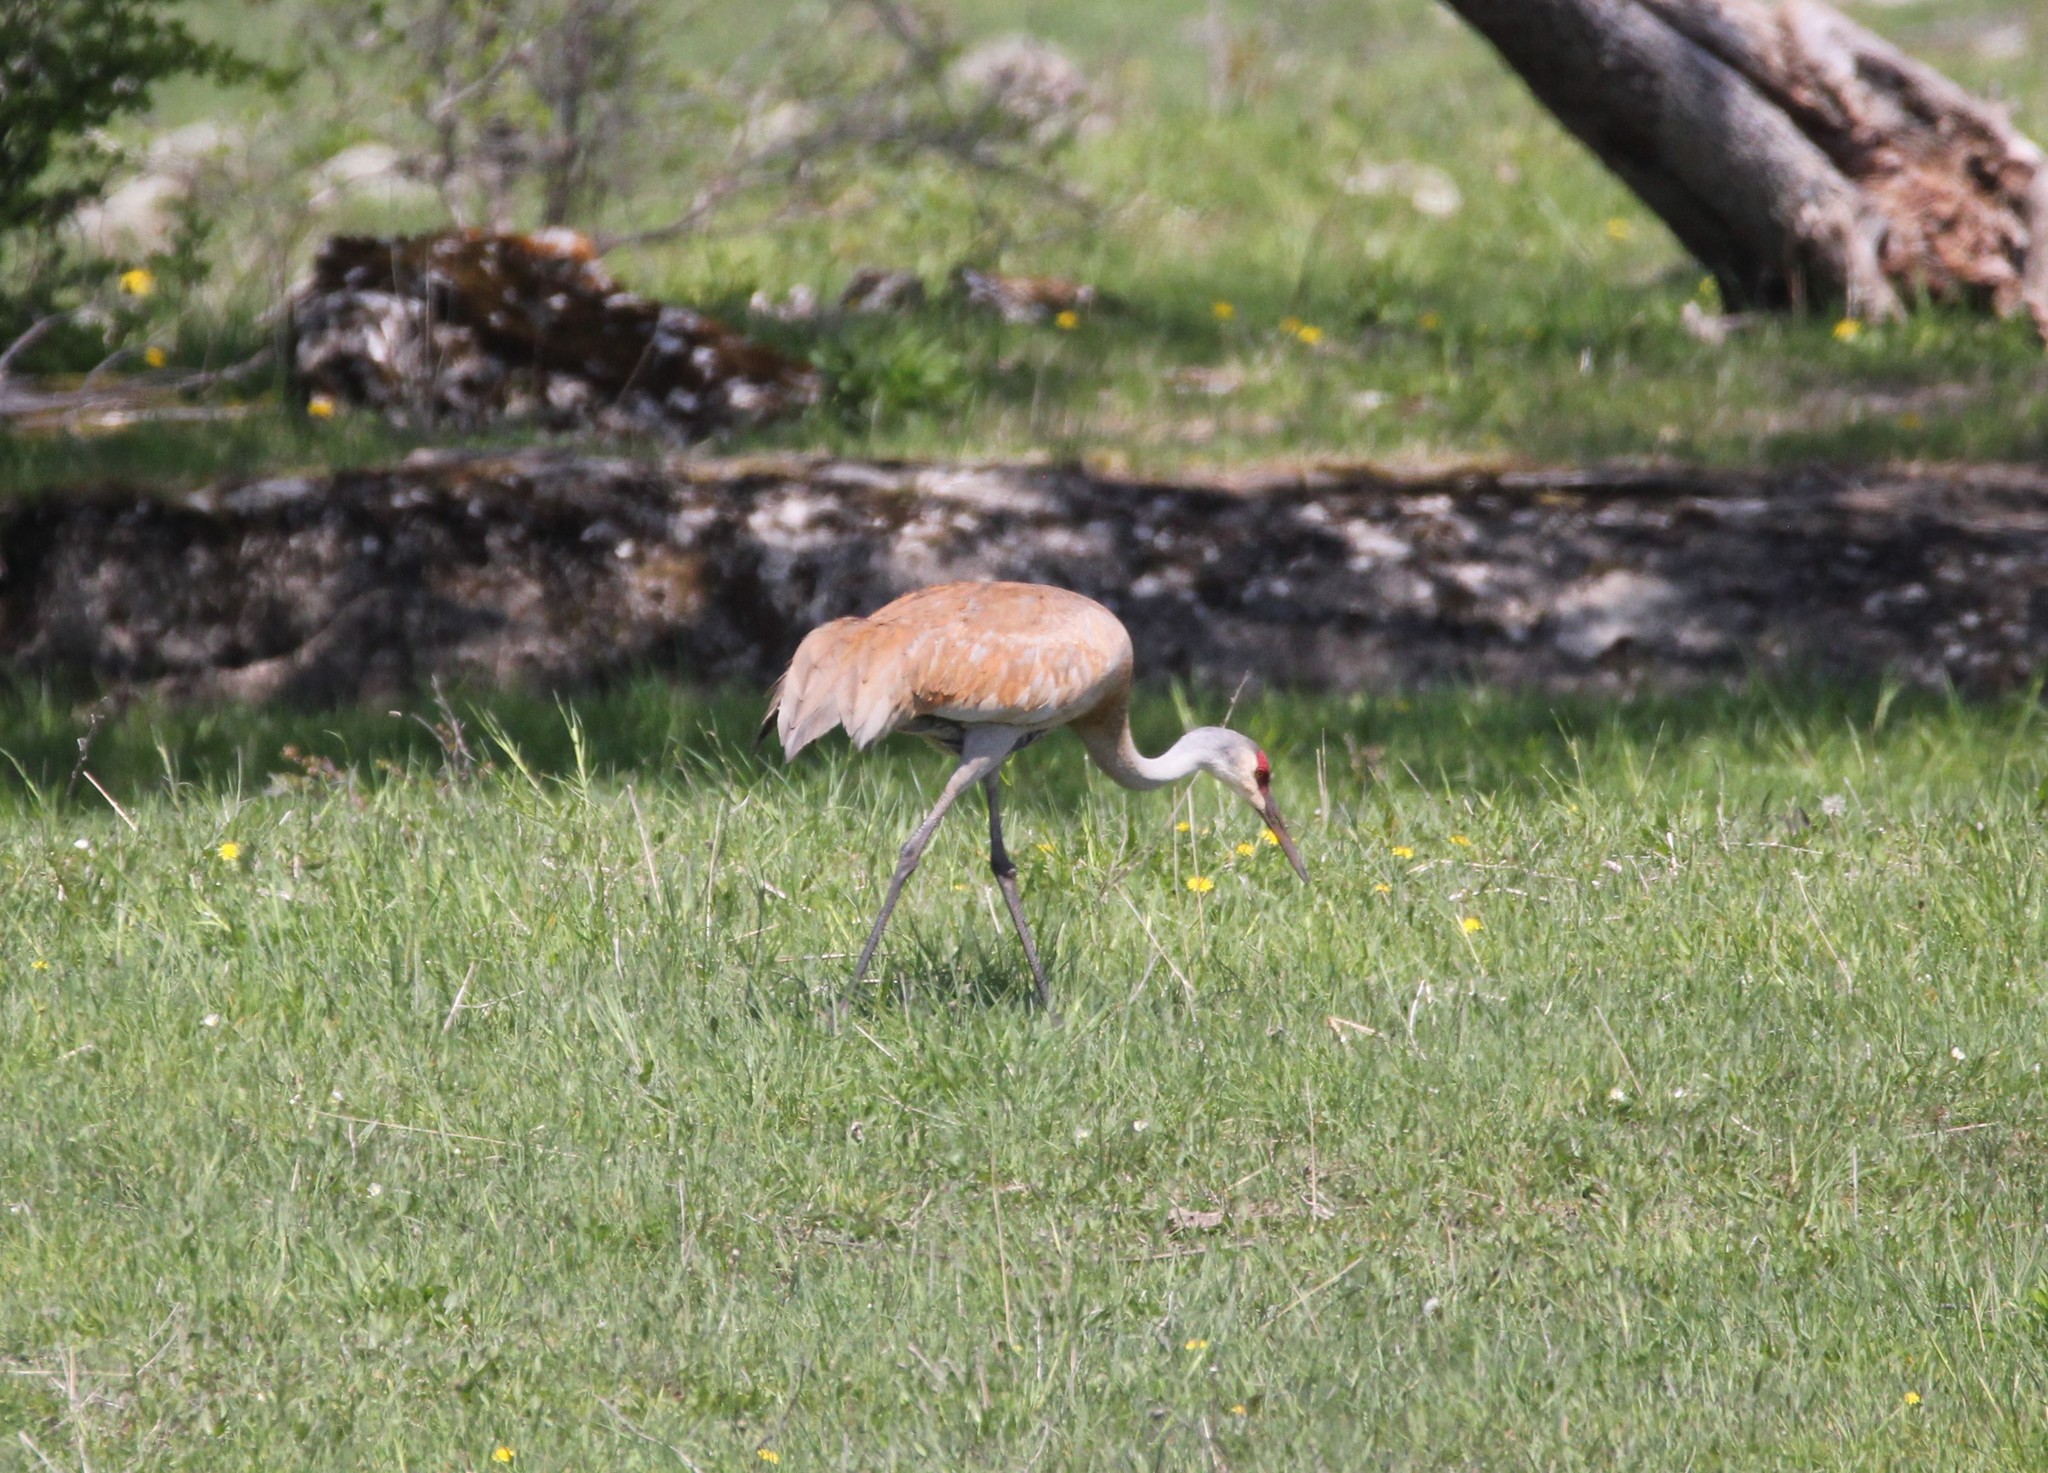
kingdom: Animalia
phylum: Chordata
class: Aves
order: Gruiformes
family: Gruidae
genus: Grus
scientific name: Grus canadensis
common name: Sandhill crane
